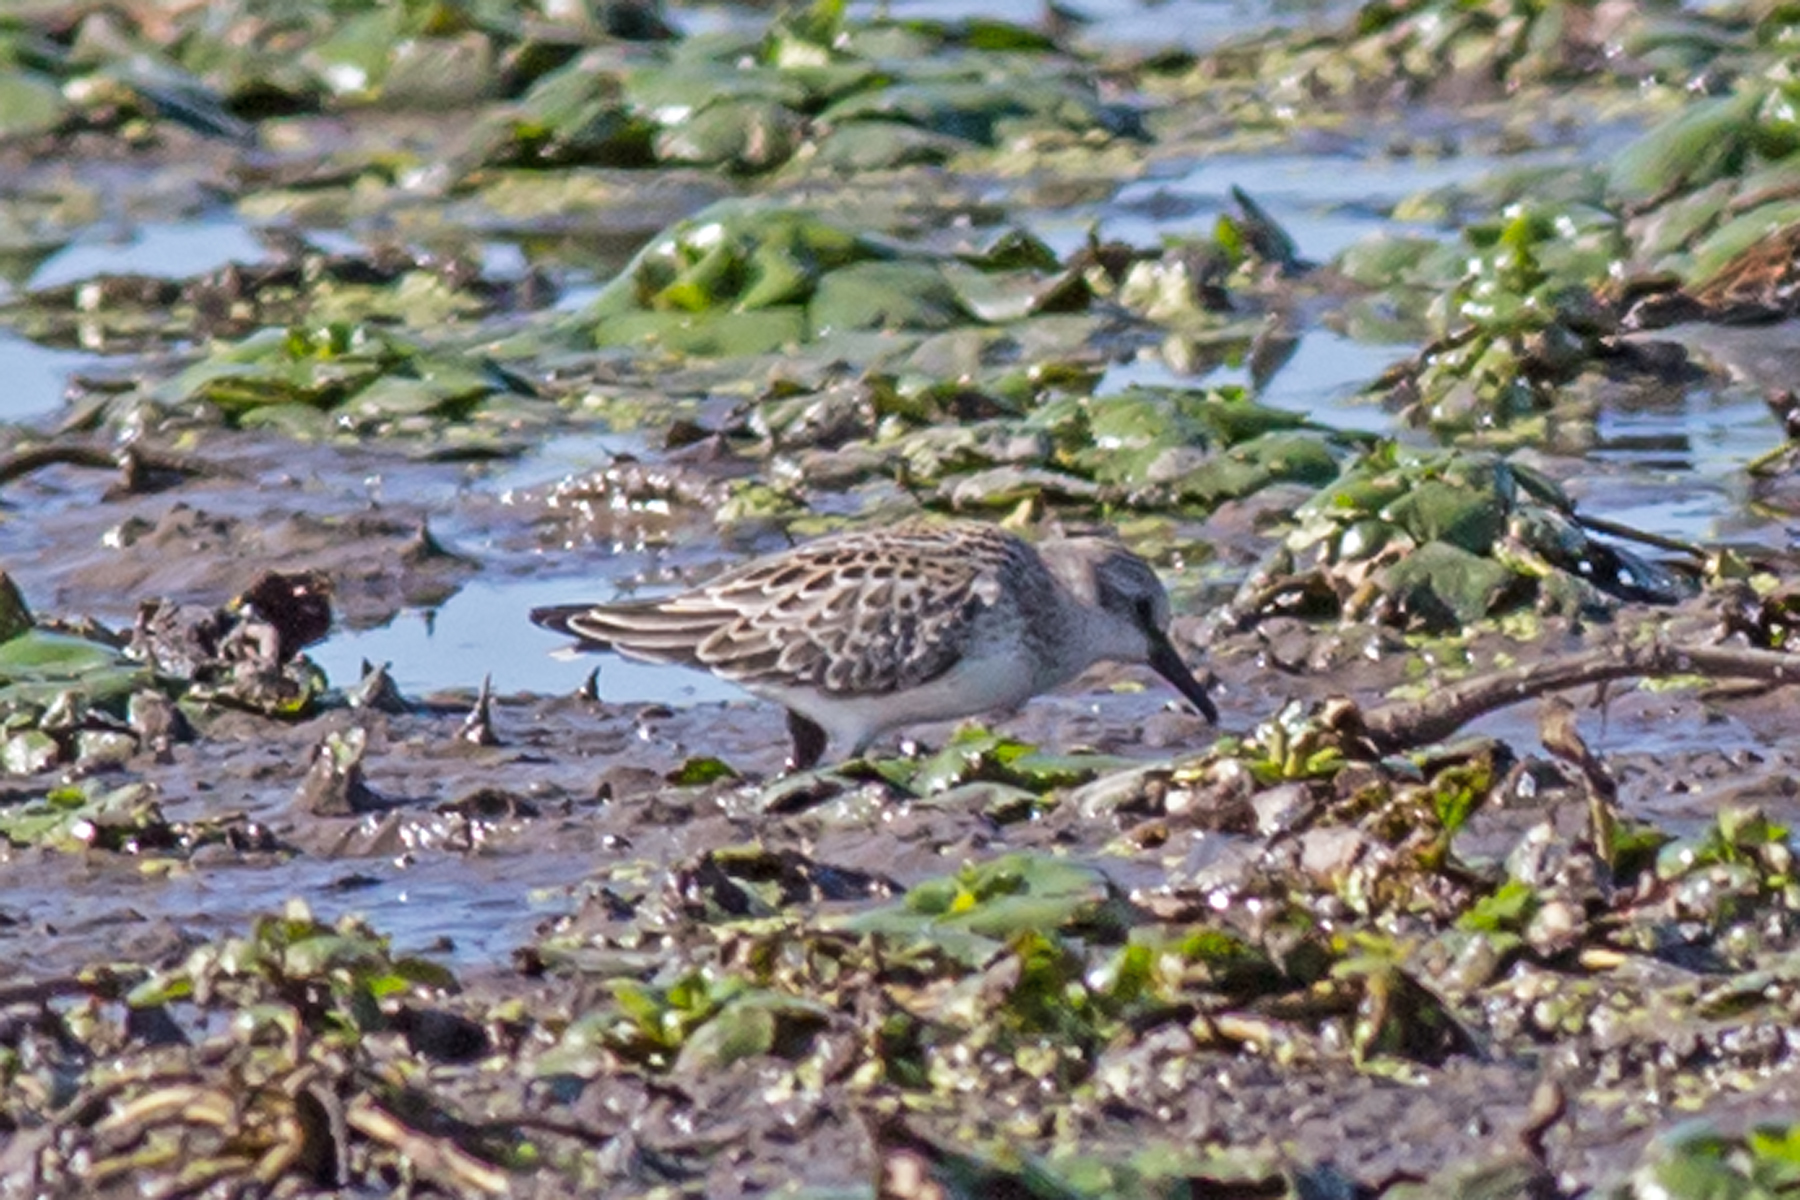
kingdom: Animalia
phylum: Chordata
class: Aves
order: Charadriiformes
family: Scolopacidae
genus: Calidris
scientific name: Calidris pusilla
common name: Semipalmated sandpiper
